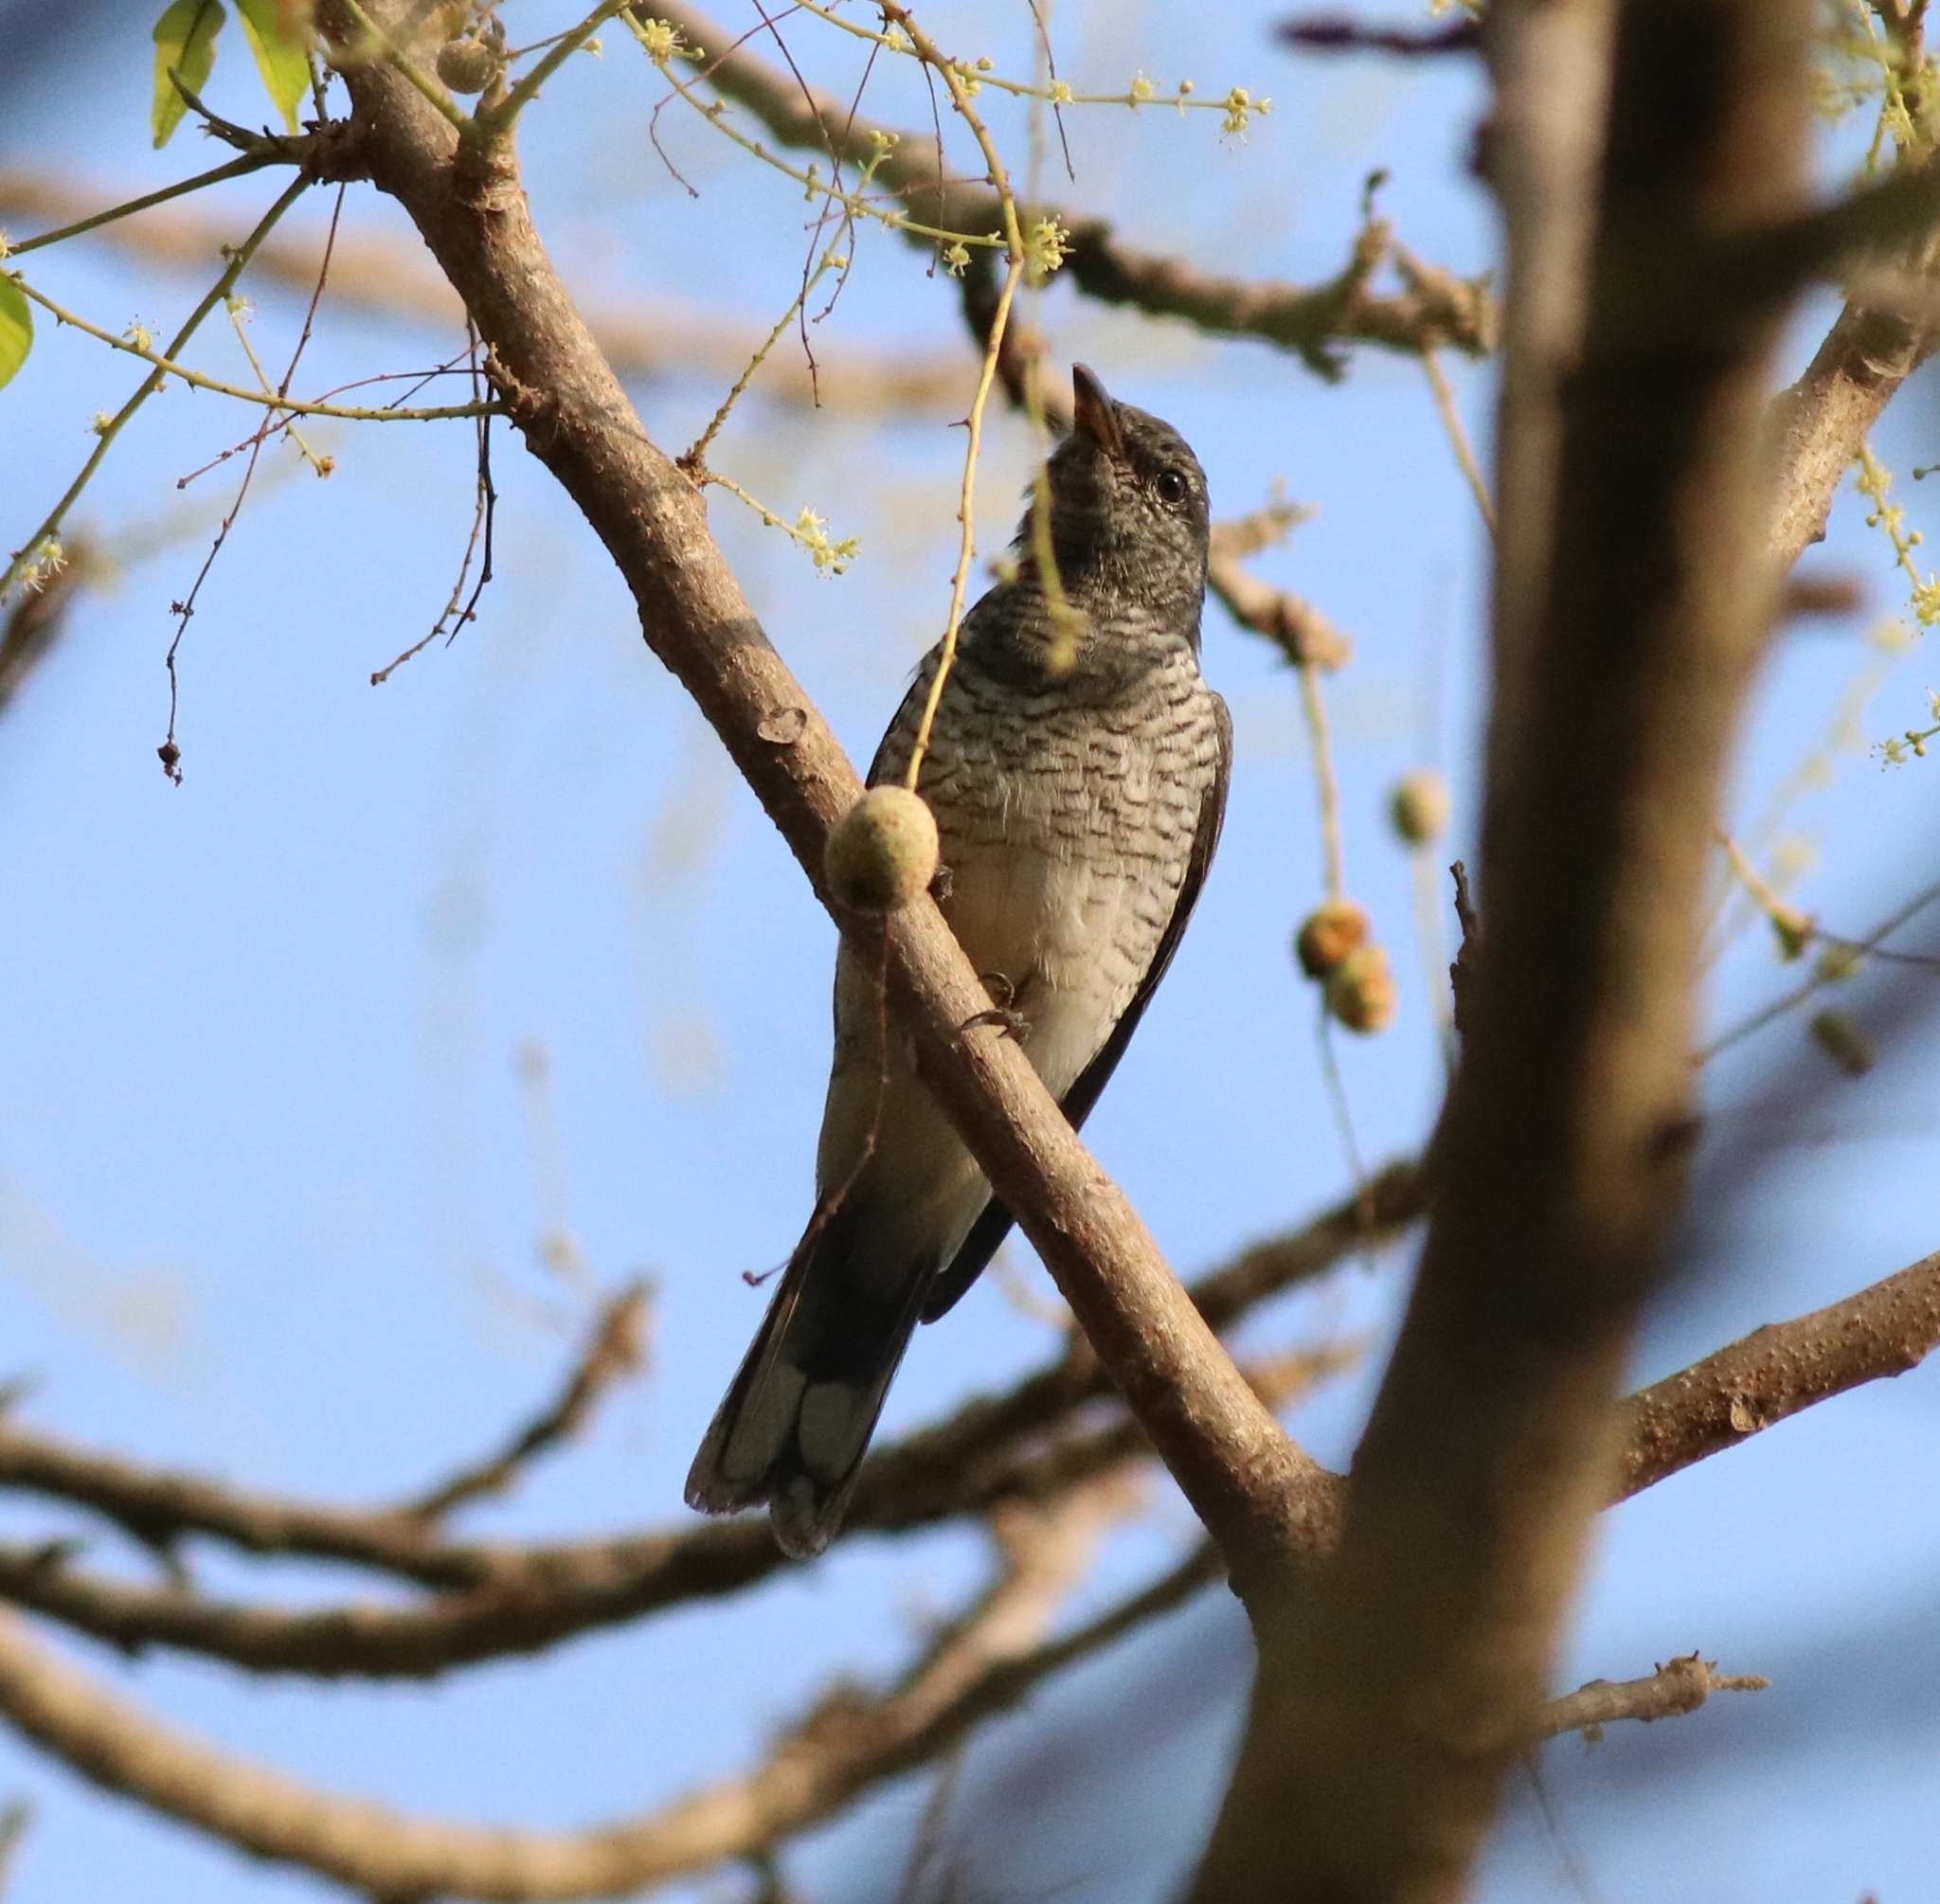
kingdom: Animalia
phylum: Chordata
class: Aves
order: Passeriformes
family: Campephagidae
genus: Coracina
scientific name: Coracina melanoptera
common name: Black-headed cuckooshrike
